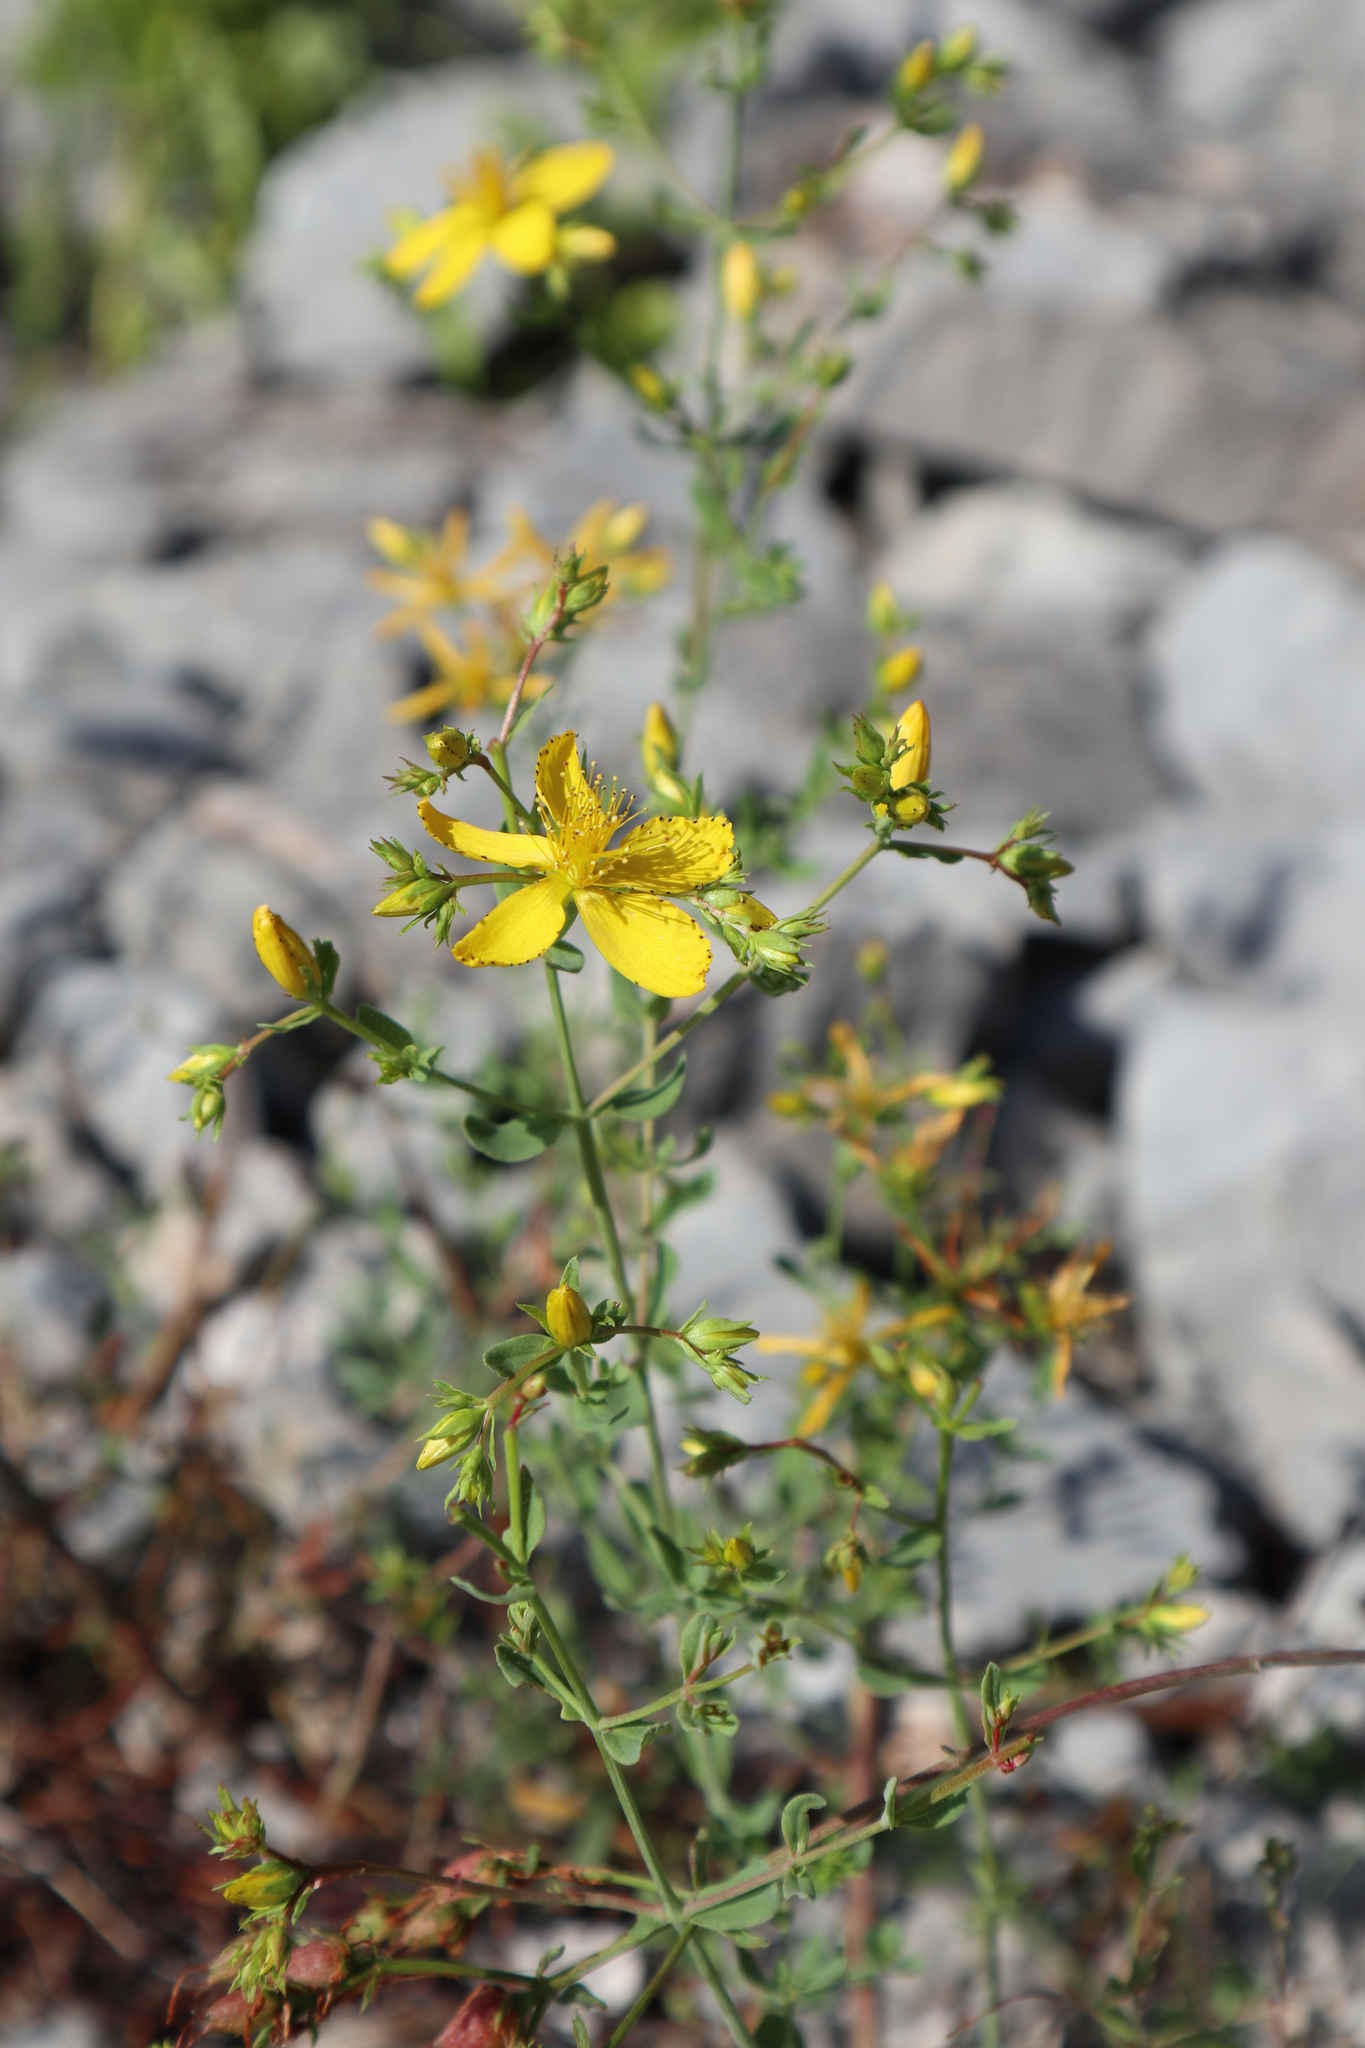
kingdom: Plantae
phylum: Tracheophyta
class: Magnoliopsida
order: Malpighiales
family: Hypericaceae
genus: Hypericum
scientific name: Hypericum perforatum
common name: Common st. johnswort
